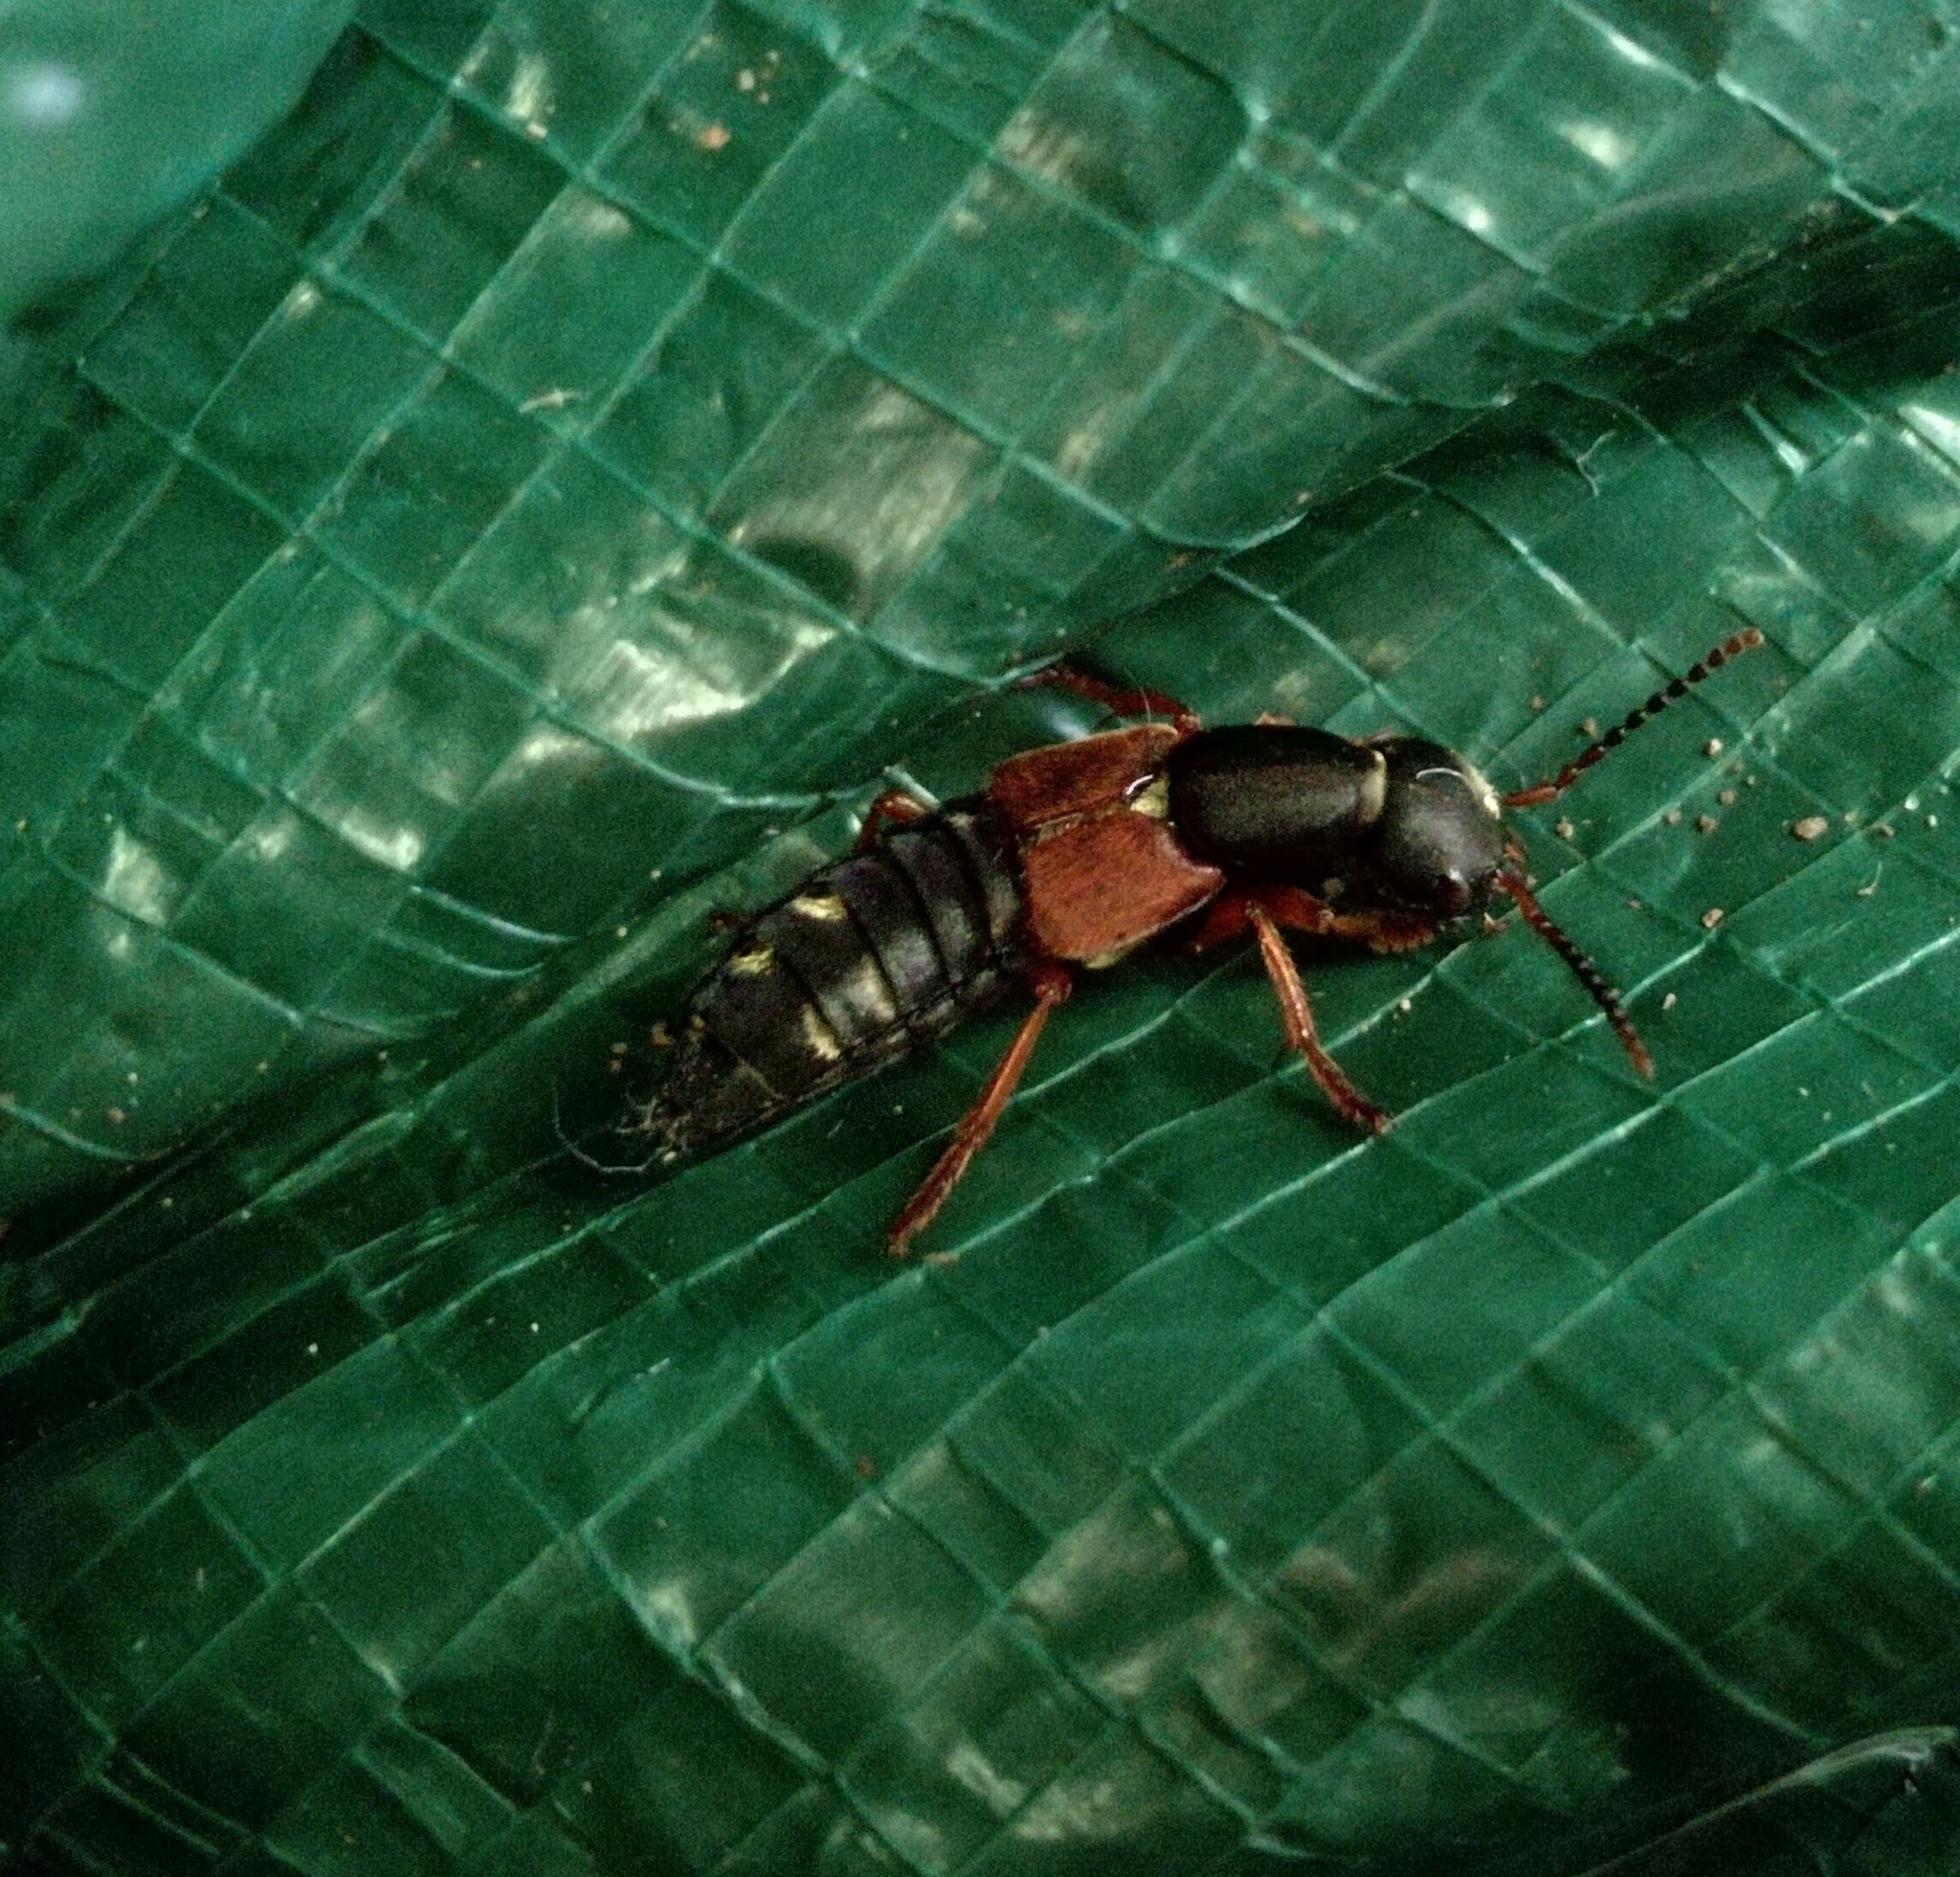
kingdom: Animalia
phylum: Arthropoda
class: Insecta
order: Coleoptera
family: Staphylinidae
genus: Staphylinus
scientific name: Staphylinus erythropterus
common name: Staph beetle
